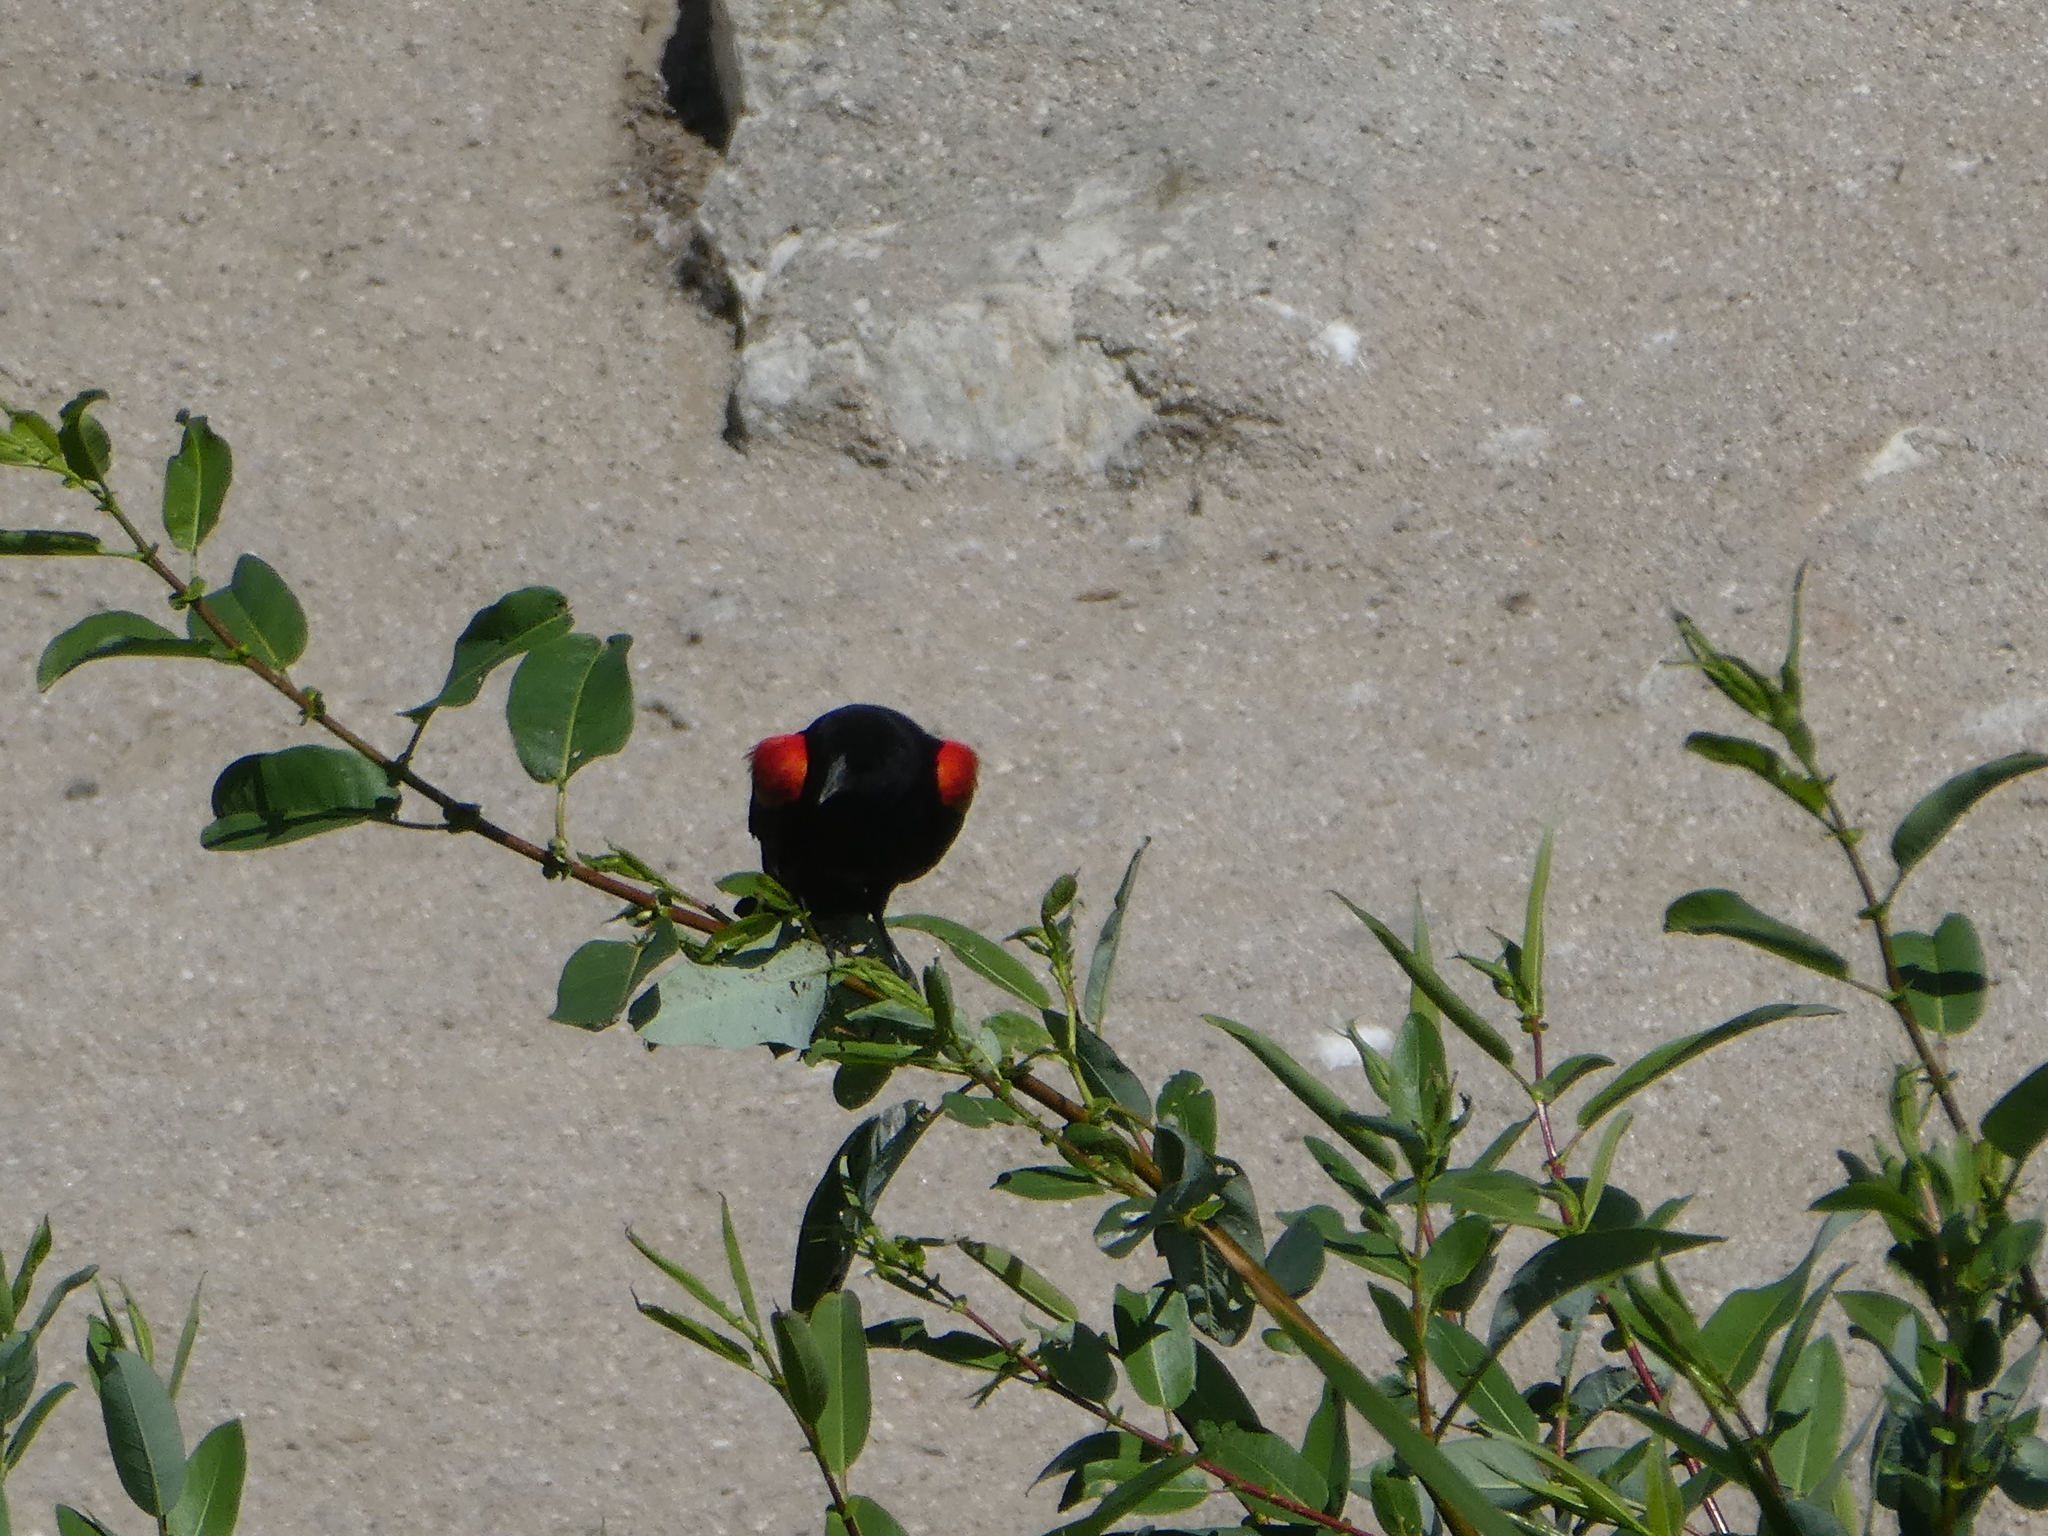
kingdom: Animalia
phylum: Chordata
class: Aves
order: Passeriformes
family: Icteridae
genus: Agelaius
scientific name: Agelaius phoeniceus
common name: Red-winged blackbird
